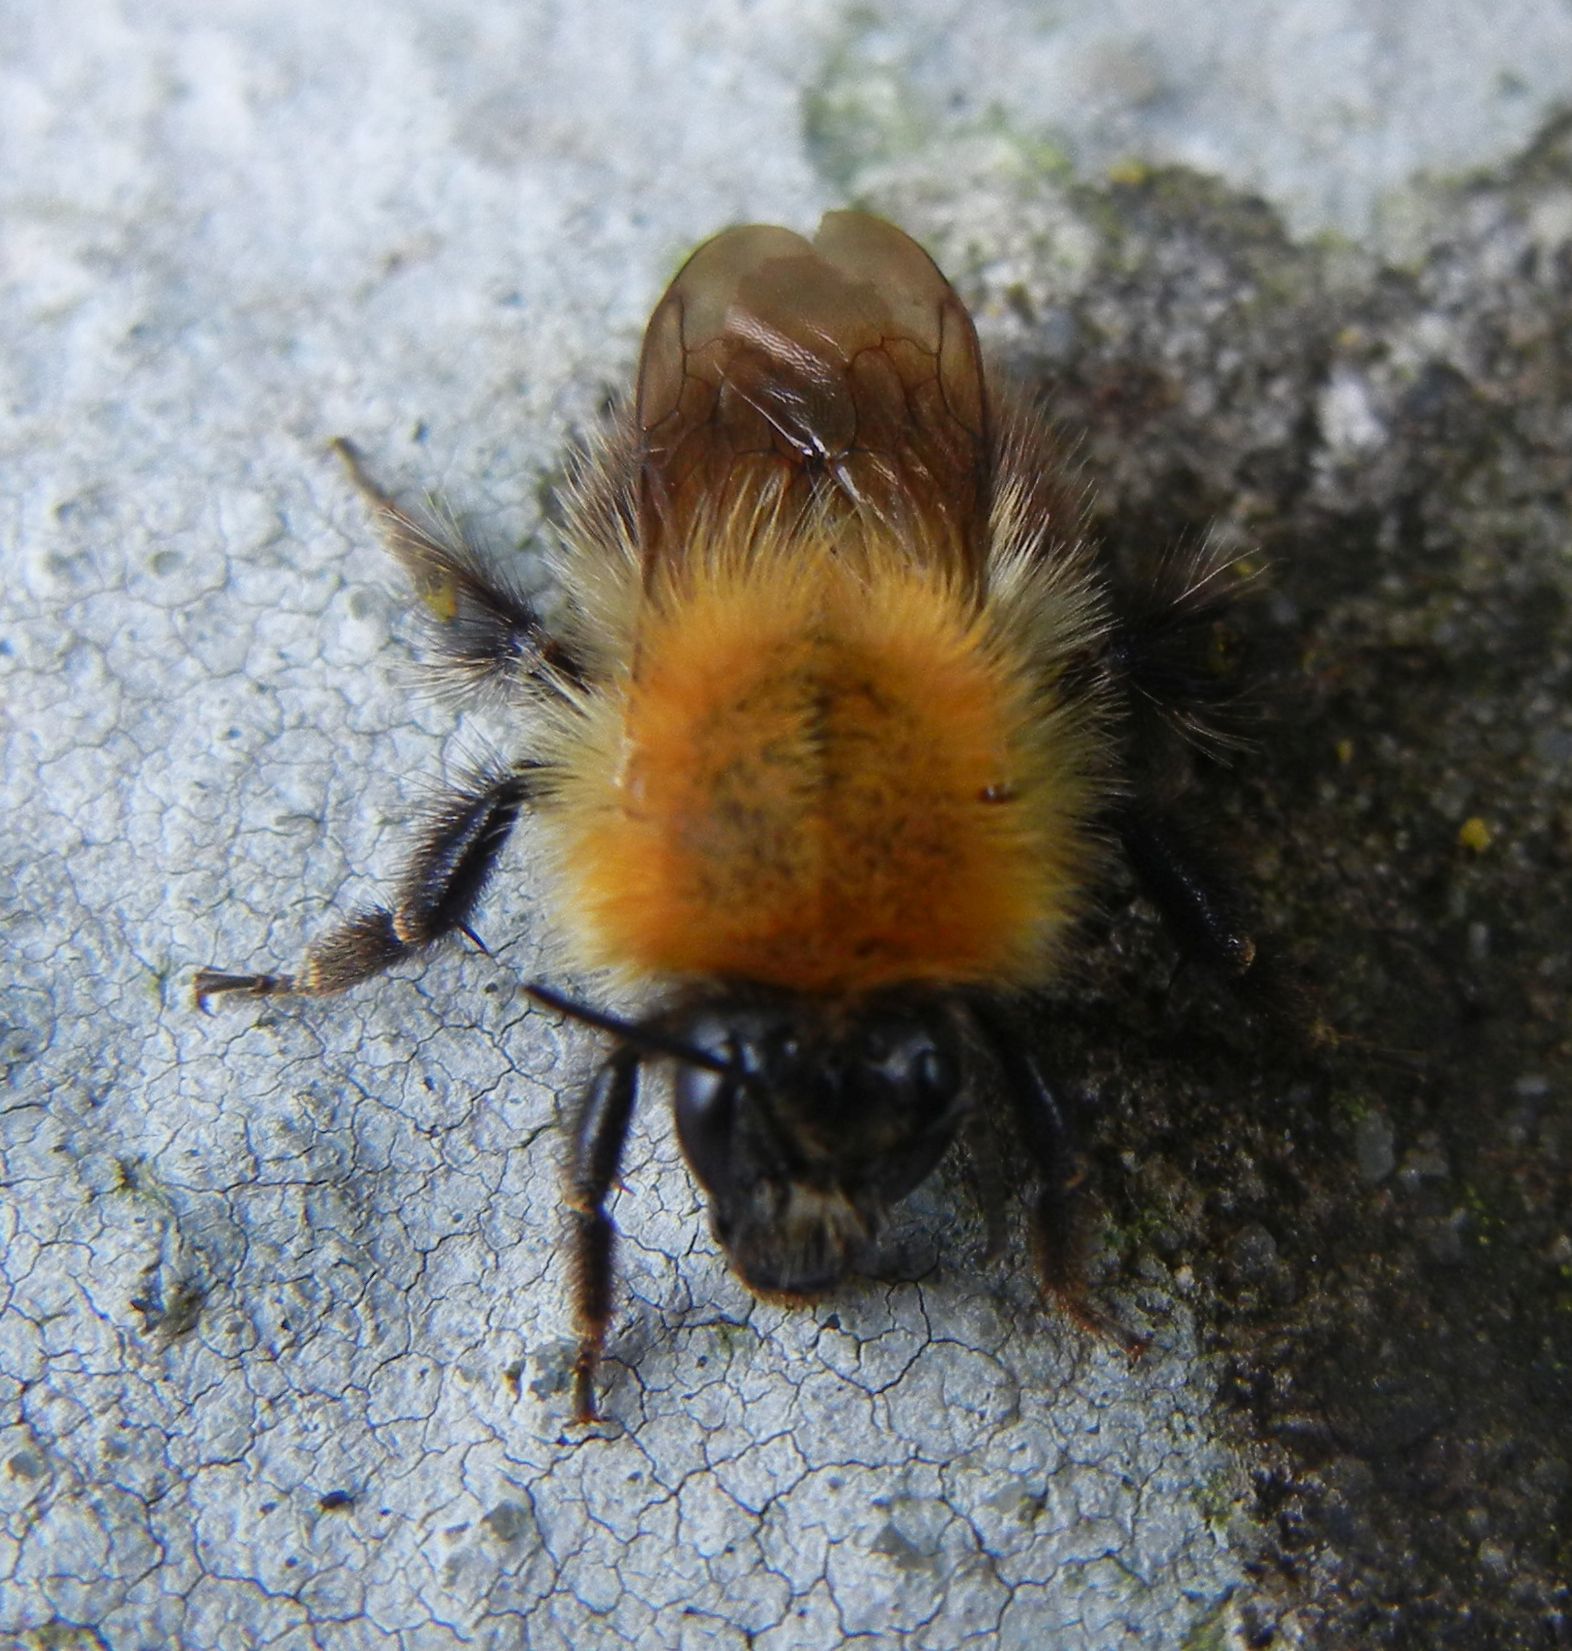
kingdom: Animalia
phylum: Arthropoda
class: Insecta
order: Hymenoptera
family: Apidae
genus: Bombus
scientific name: Bombus pascuorum
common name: Common carder bee
